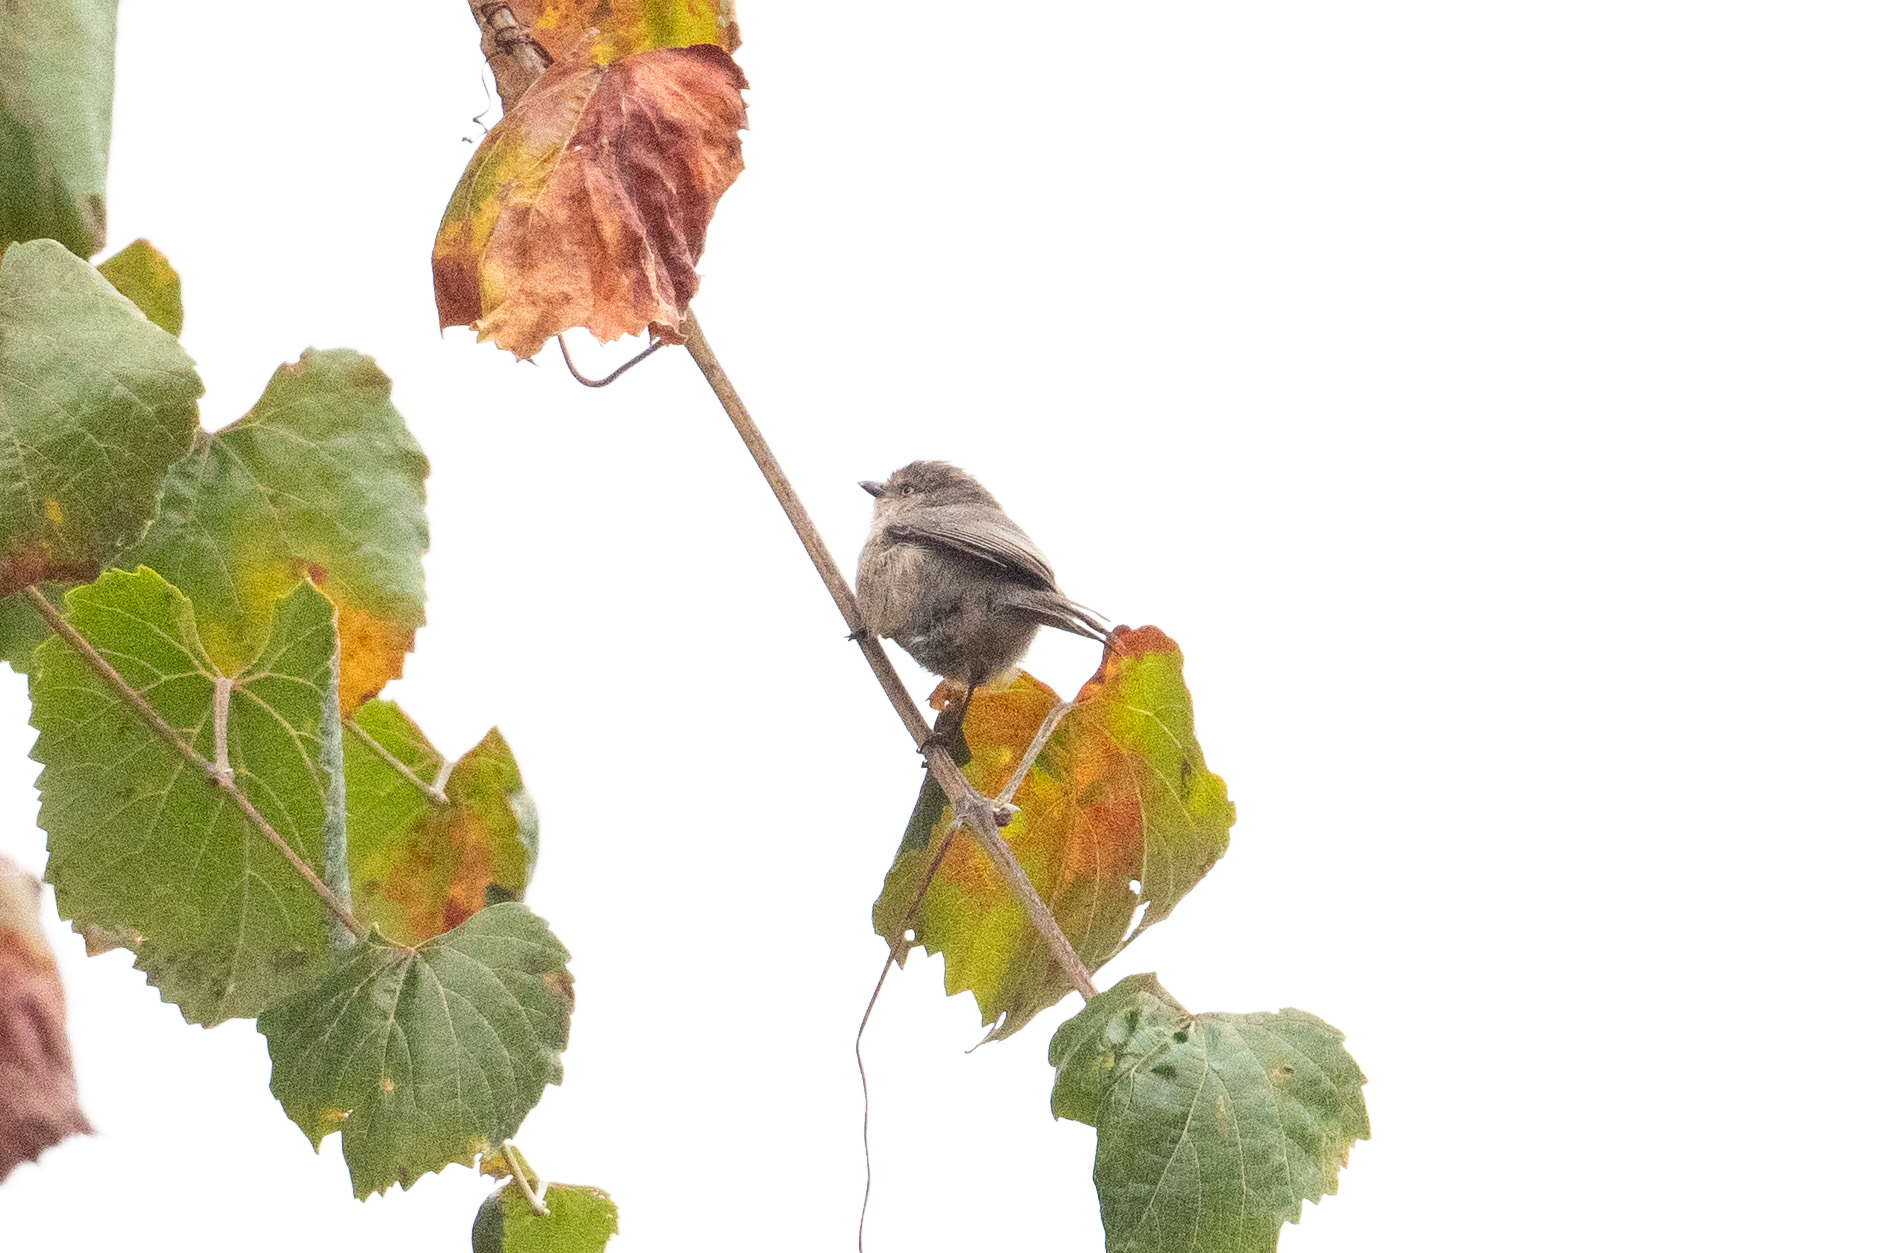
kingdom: Animalia
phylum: Chordata
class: Aves
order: Passeriformes
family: Aegithalidae
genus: Psaltriparus
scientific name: Psaltriparus minimus
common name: American bushtit
